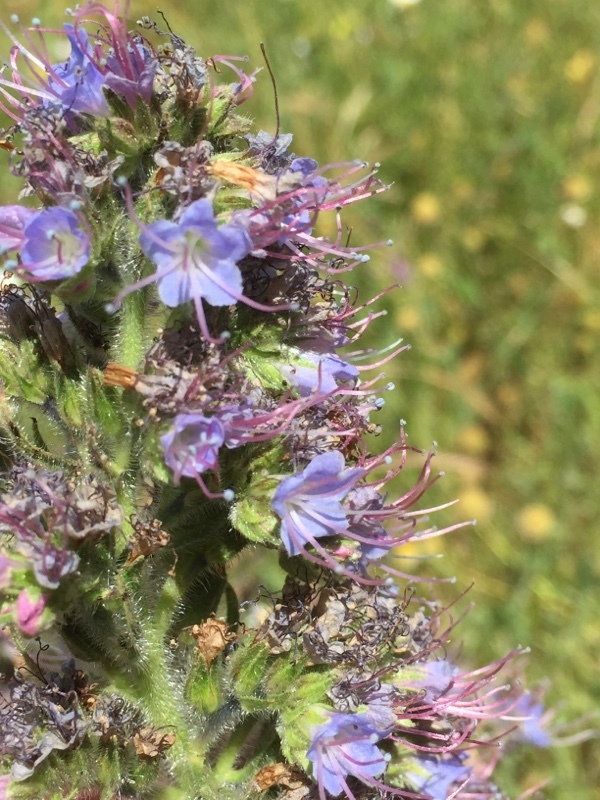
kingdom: Plantae
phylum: Tracheophyta
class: Magnoliopsida
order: Boraginales
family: Boraginaceae
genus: Echium
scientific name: Echium lusitanicum
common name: Violet-vein viper's bugloss
